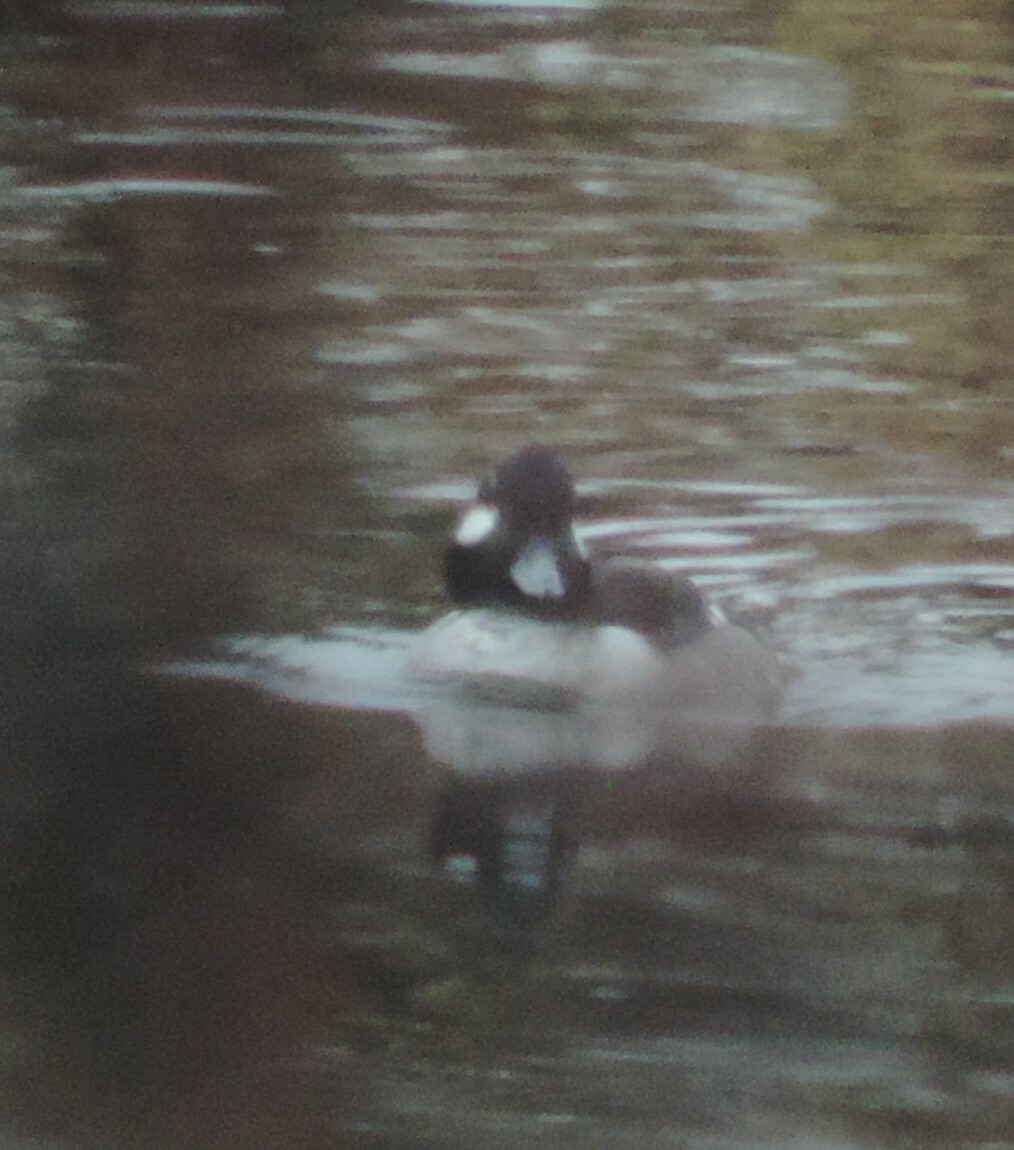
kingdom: Animalia
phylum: Chordata
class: Aves
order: Anseriformes
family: Anatidae
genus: Bucephala
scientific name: Bucephala albeola
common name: Bufflehead
